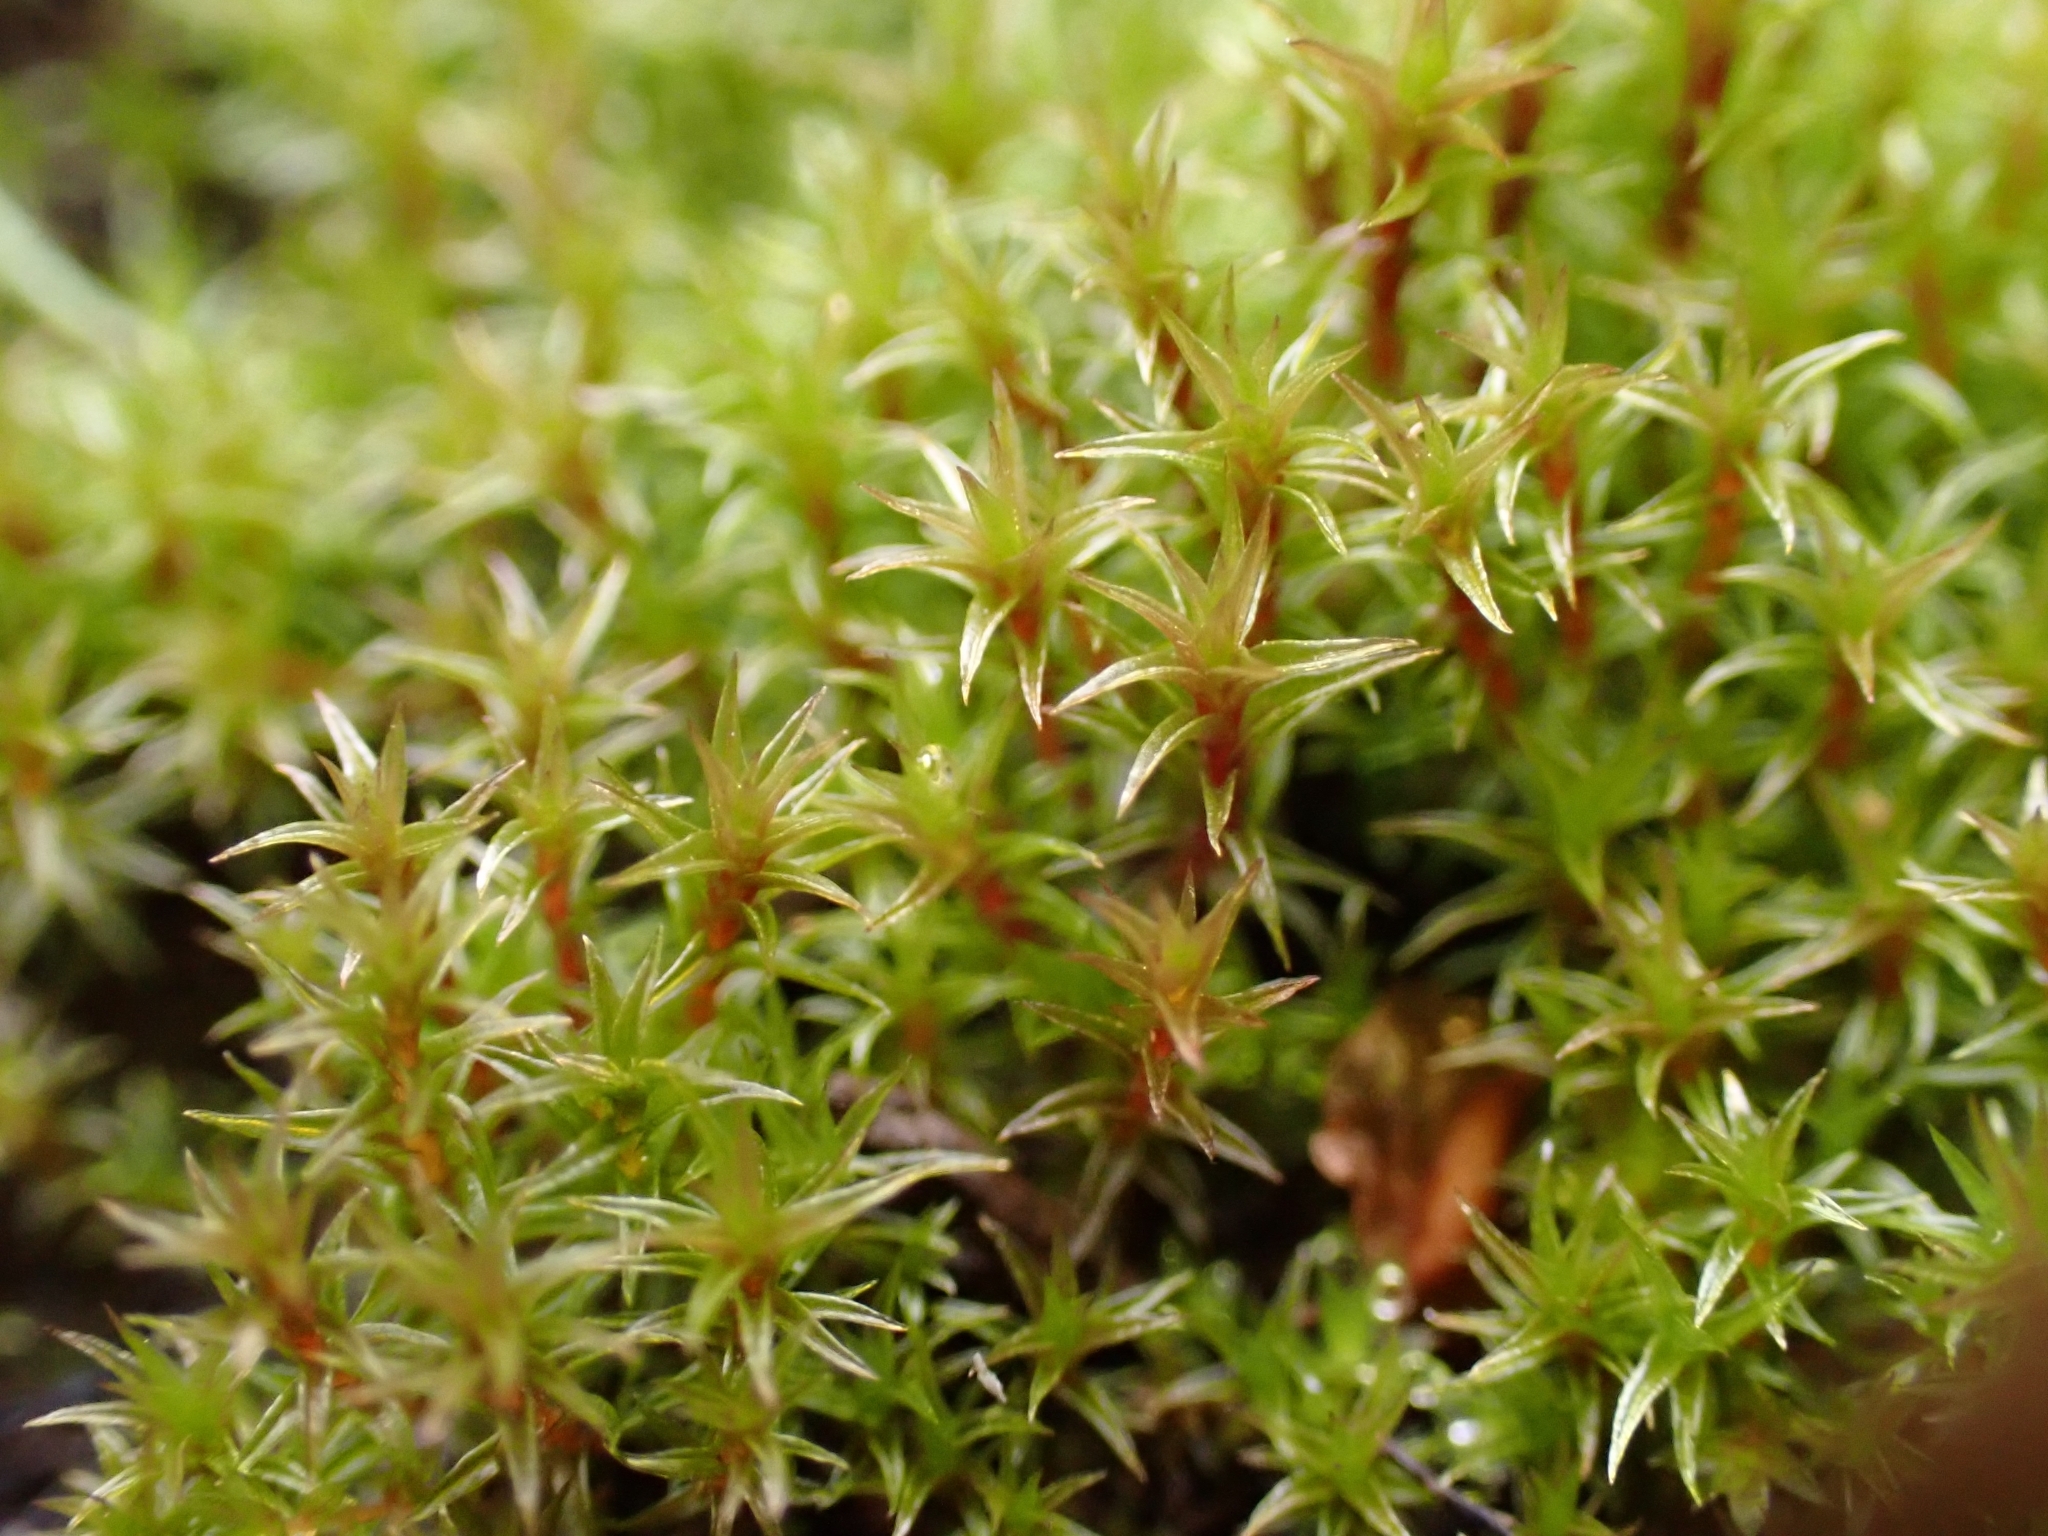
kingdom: Plantae
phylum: Bryophyta
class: Bryopsida
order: Dicranales
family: Ditrichaceae
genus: Ceratodon
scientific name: Ceratodon purpureus
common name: Redshank
